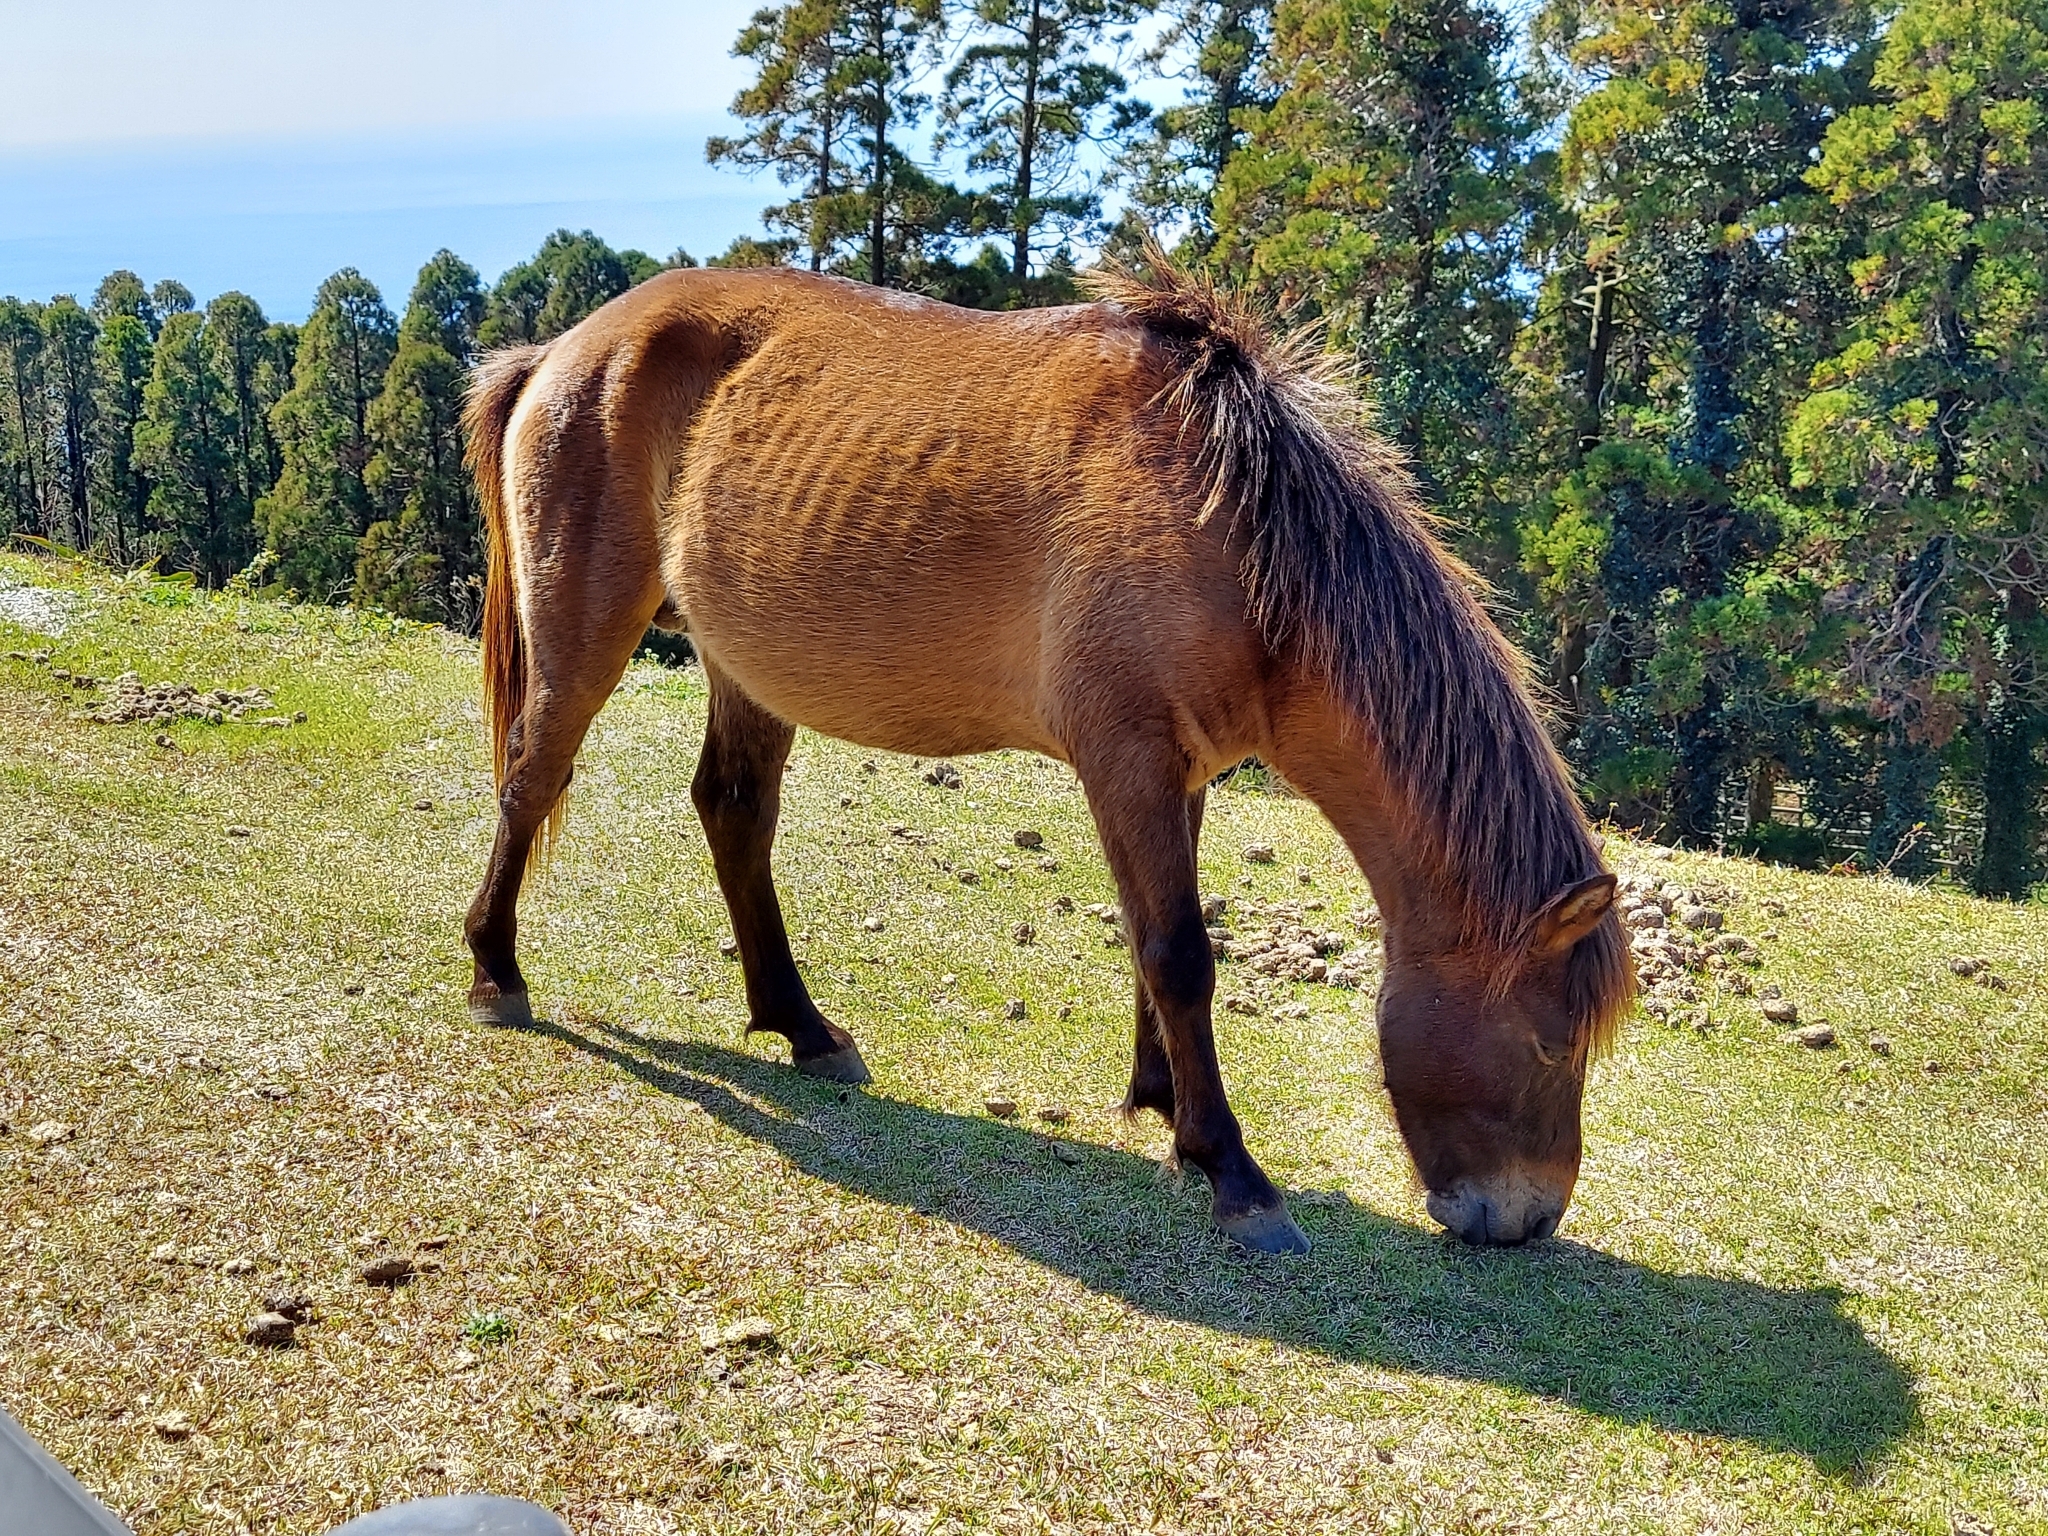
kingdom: Animalia
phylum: Chordata
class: Mammalia
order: Perissodactyla
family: Equidae
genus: Equus
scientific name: Equus caballus
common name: Horse
